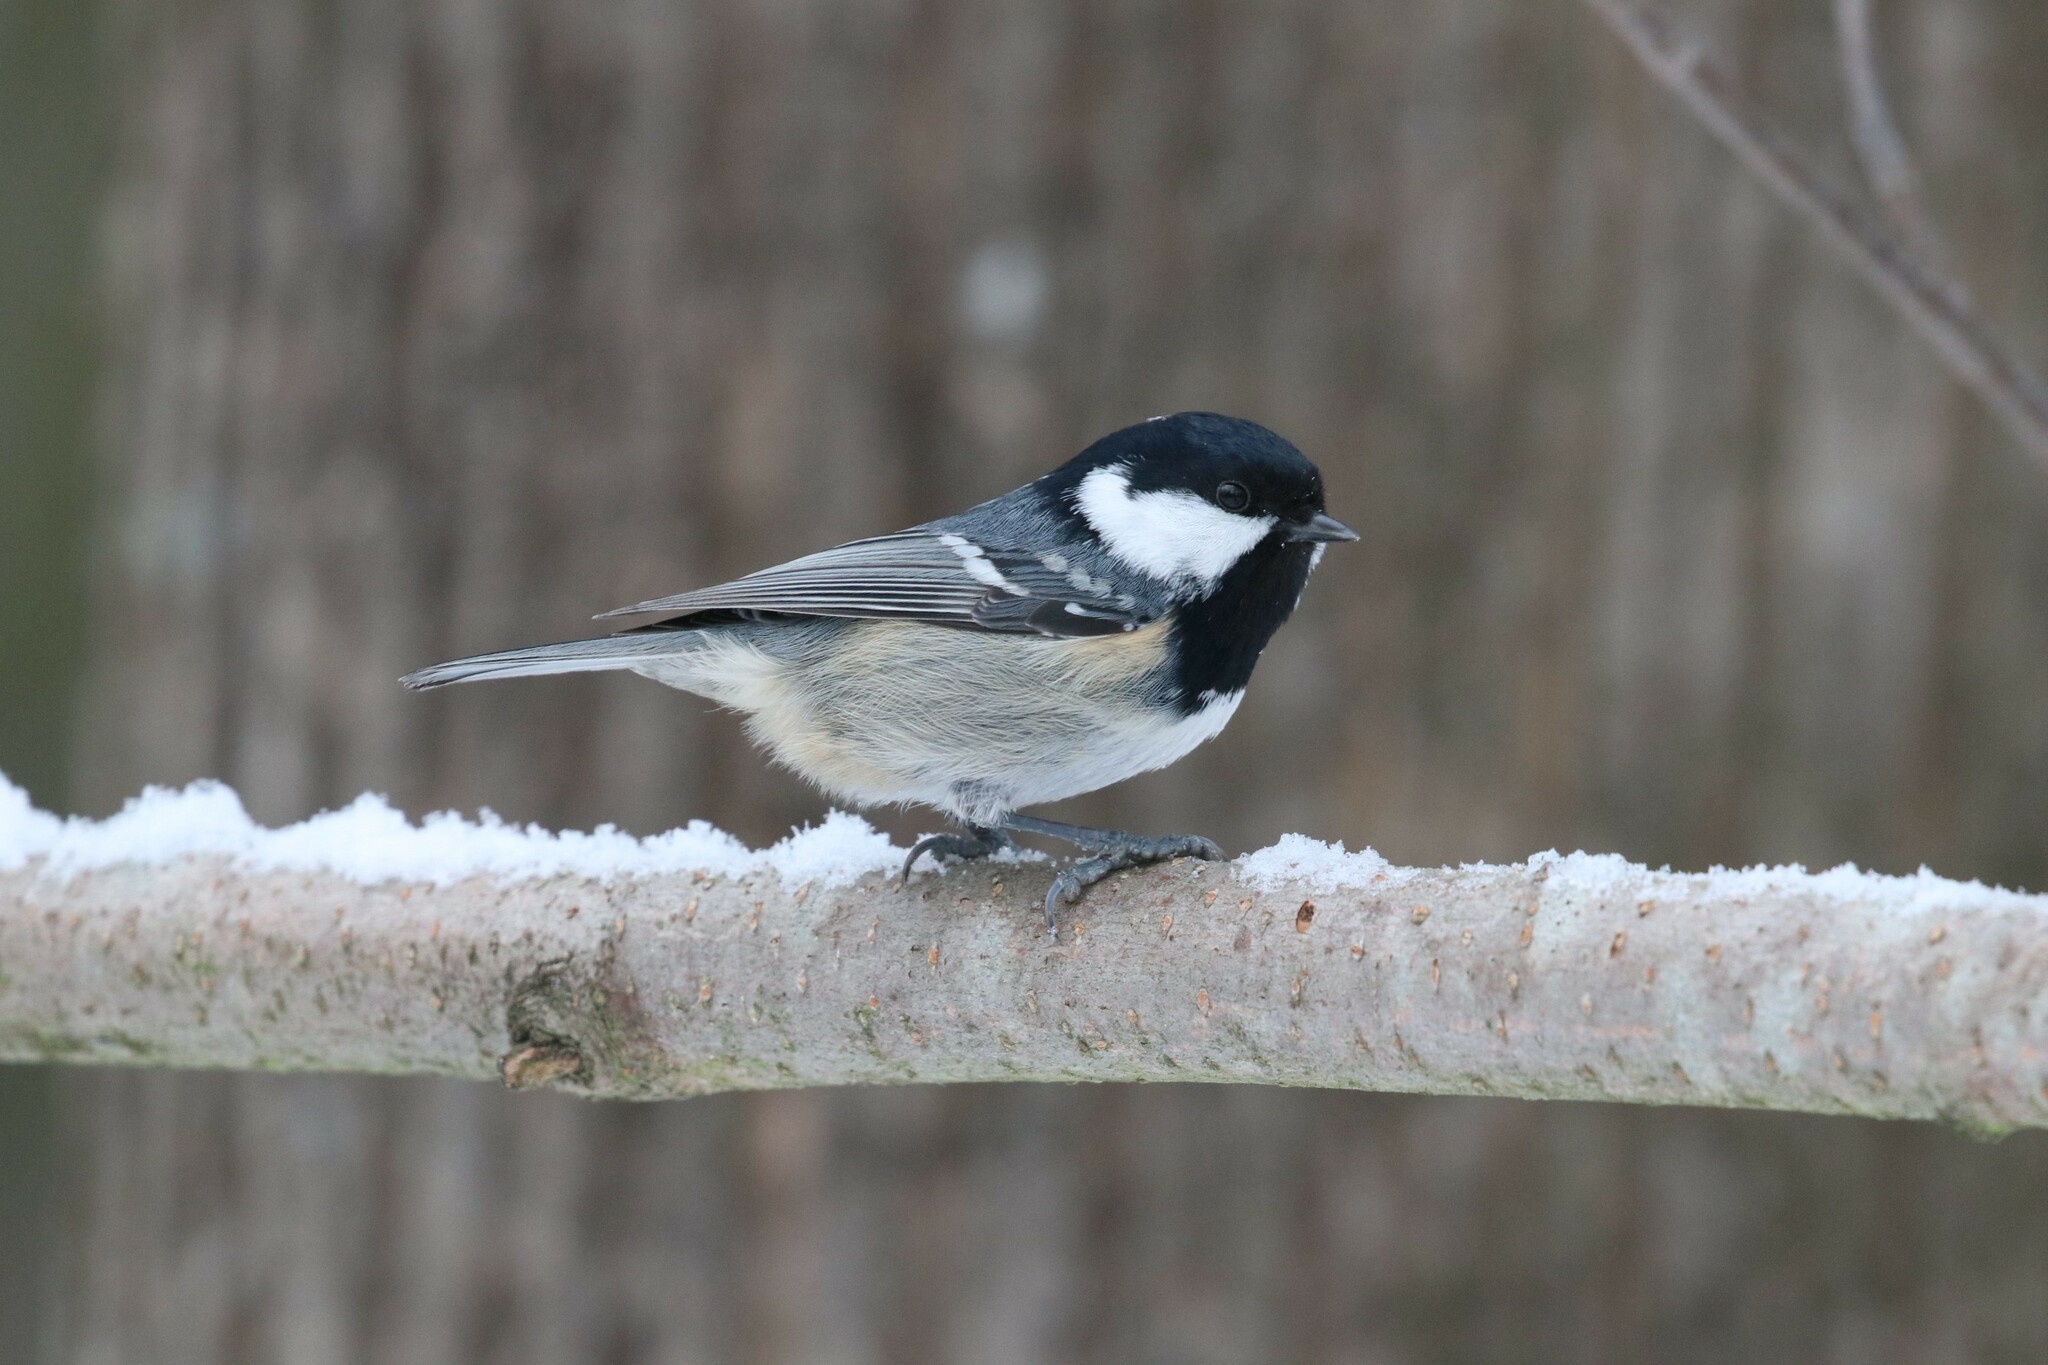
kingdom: Animalia
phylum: Chordata
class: Aves
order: Passeriformes
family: Paridae
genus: Periparus
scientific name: Periparus ater
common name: Coal tit
